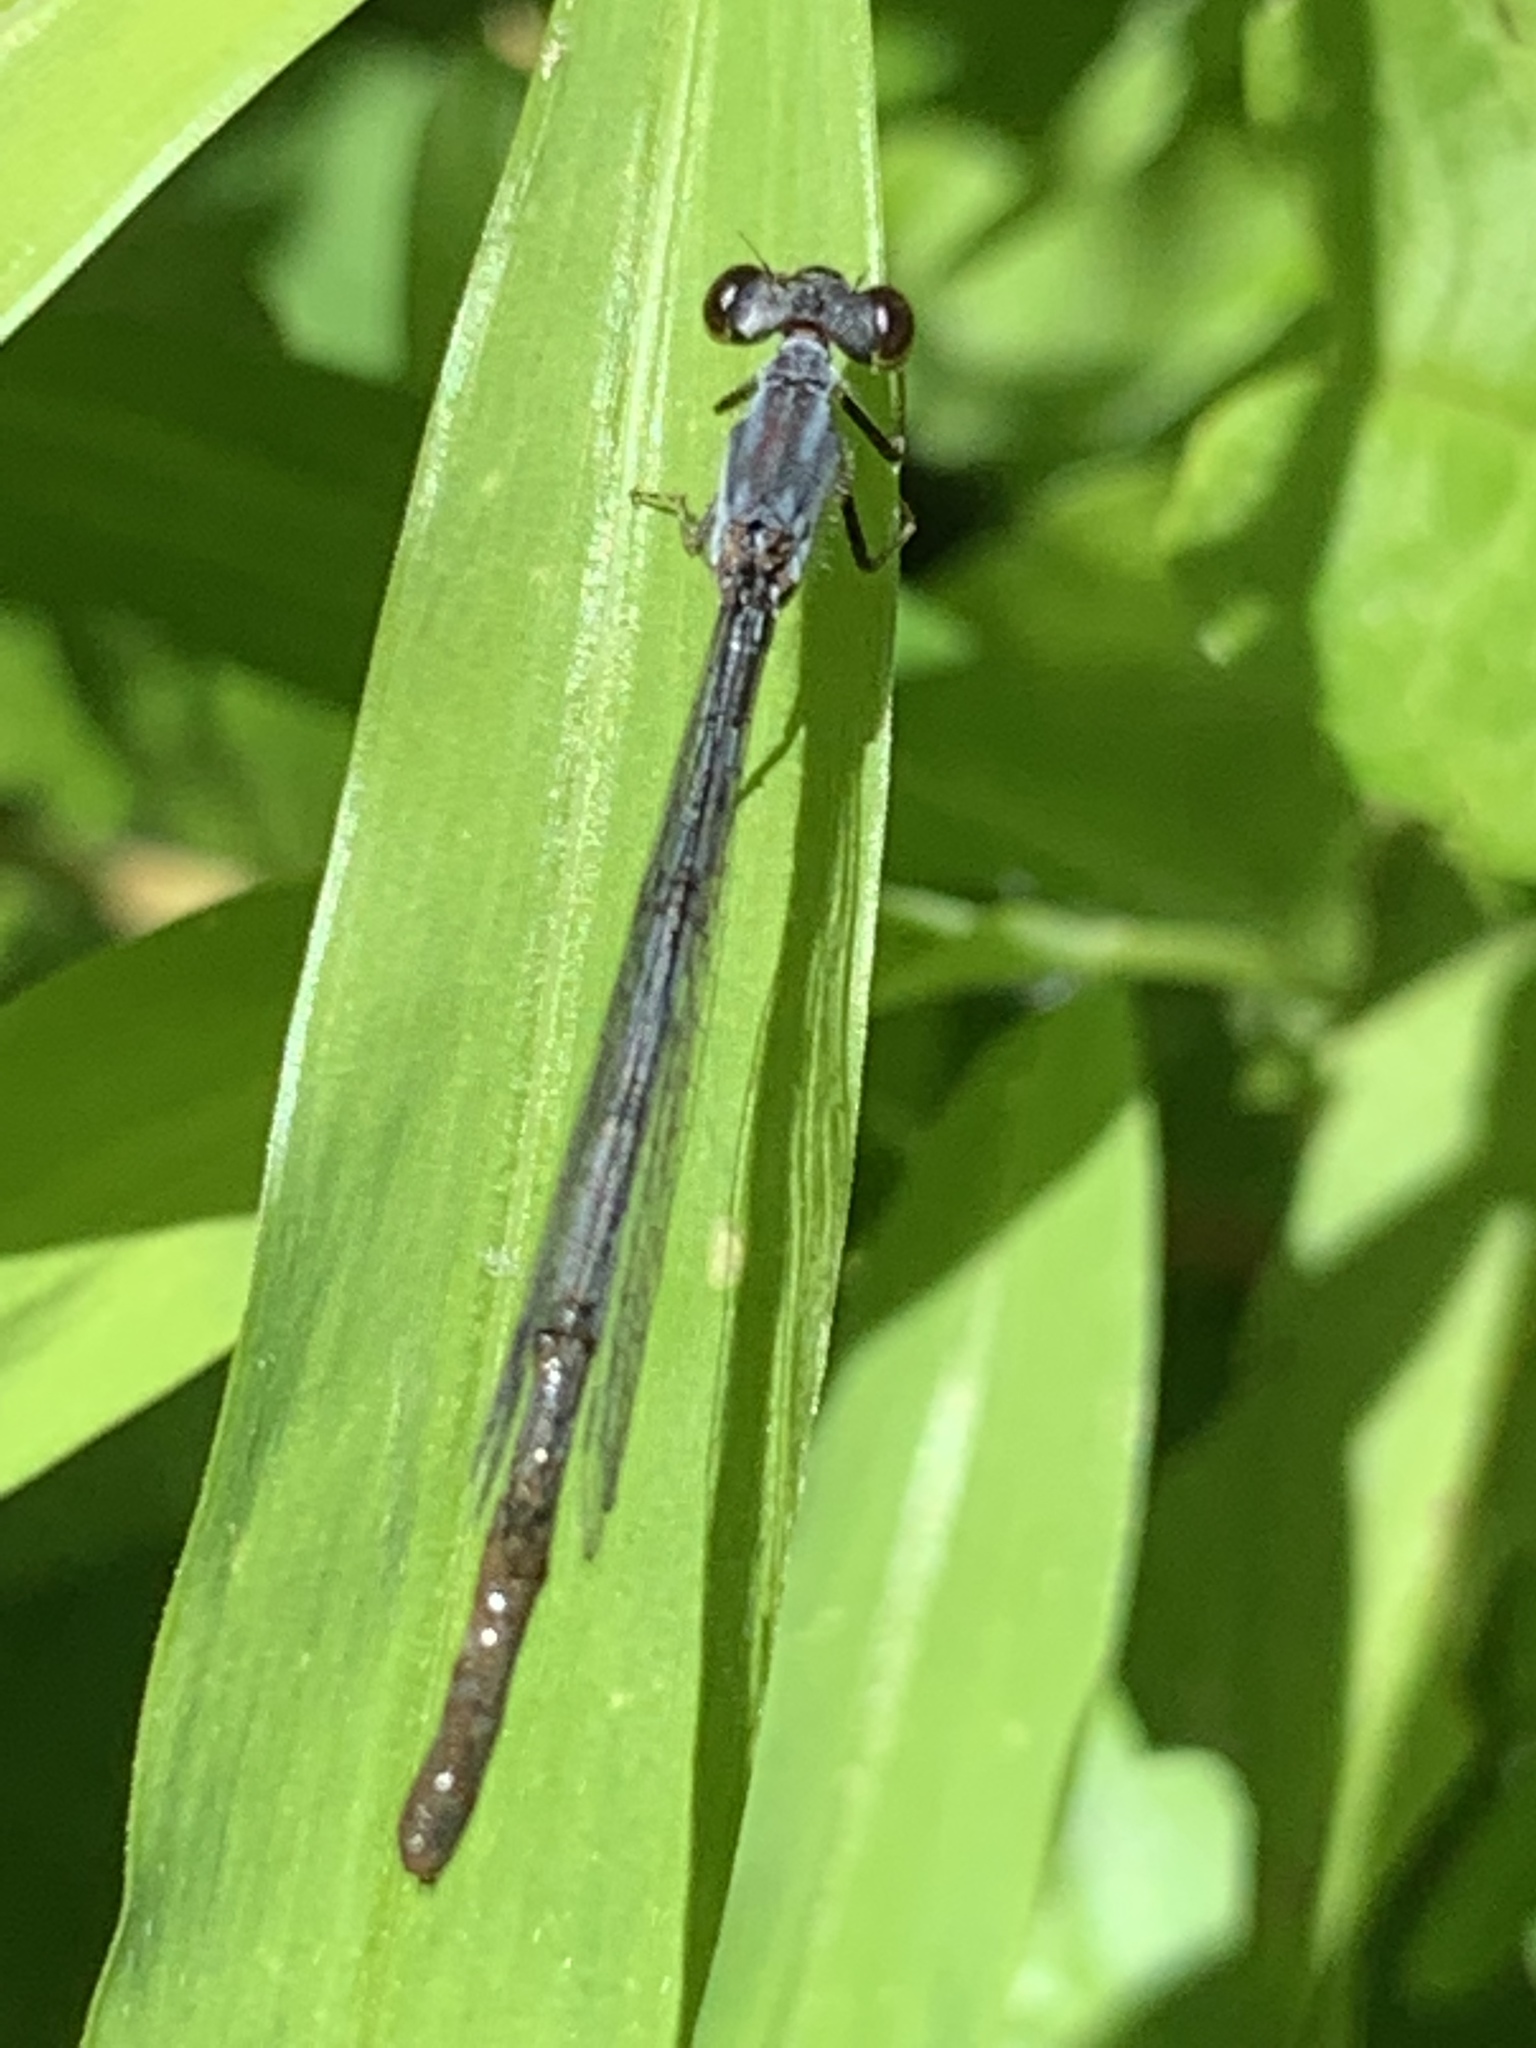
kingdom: Animalia
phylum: Arthropoda
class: Insecta
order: Odonata
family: Coenagrionidae
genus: Ischnura
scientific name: Ischnura posita
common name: Fragile forktail
